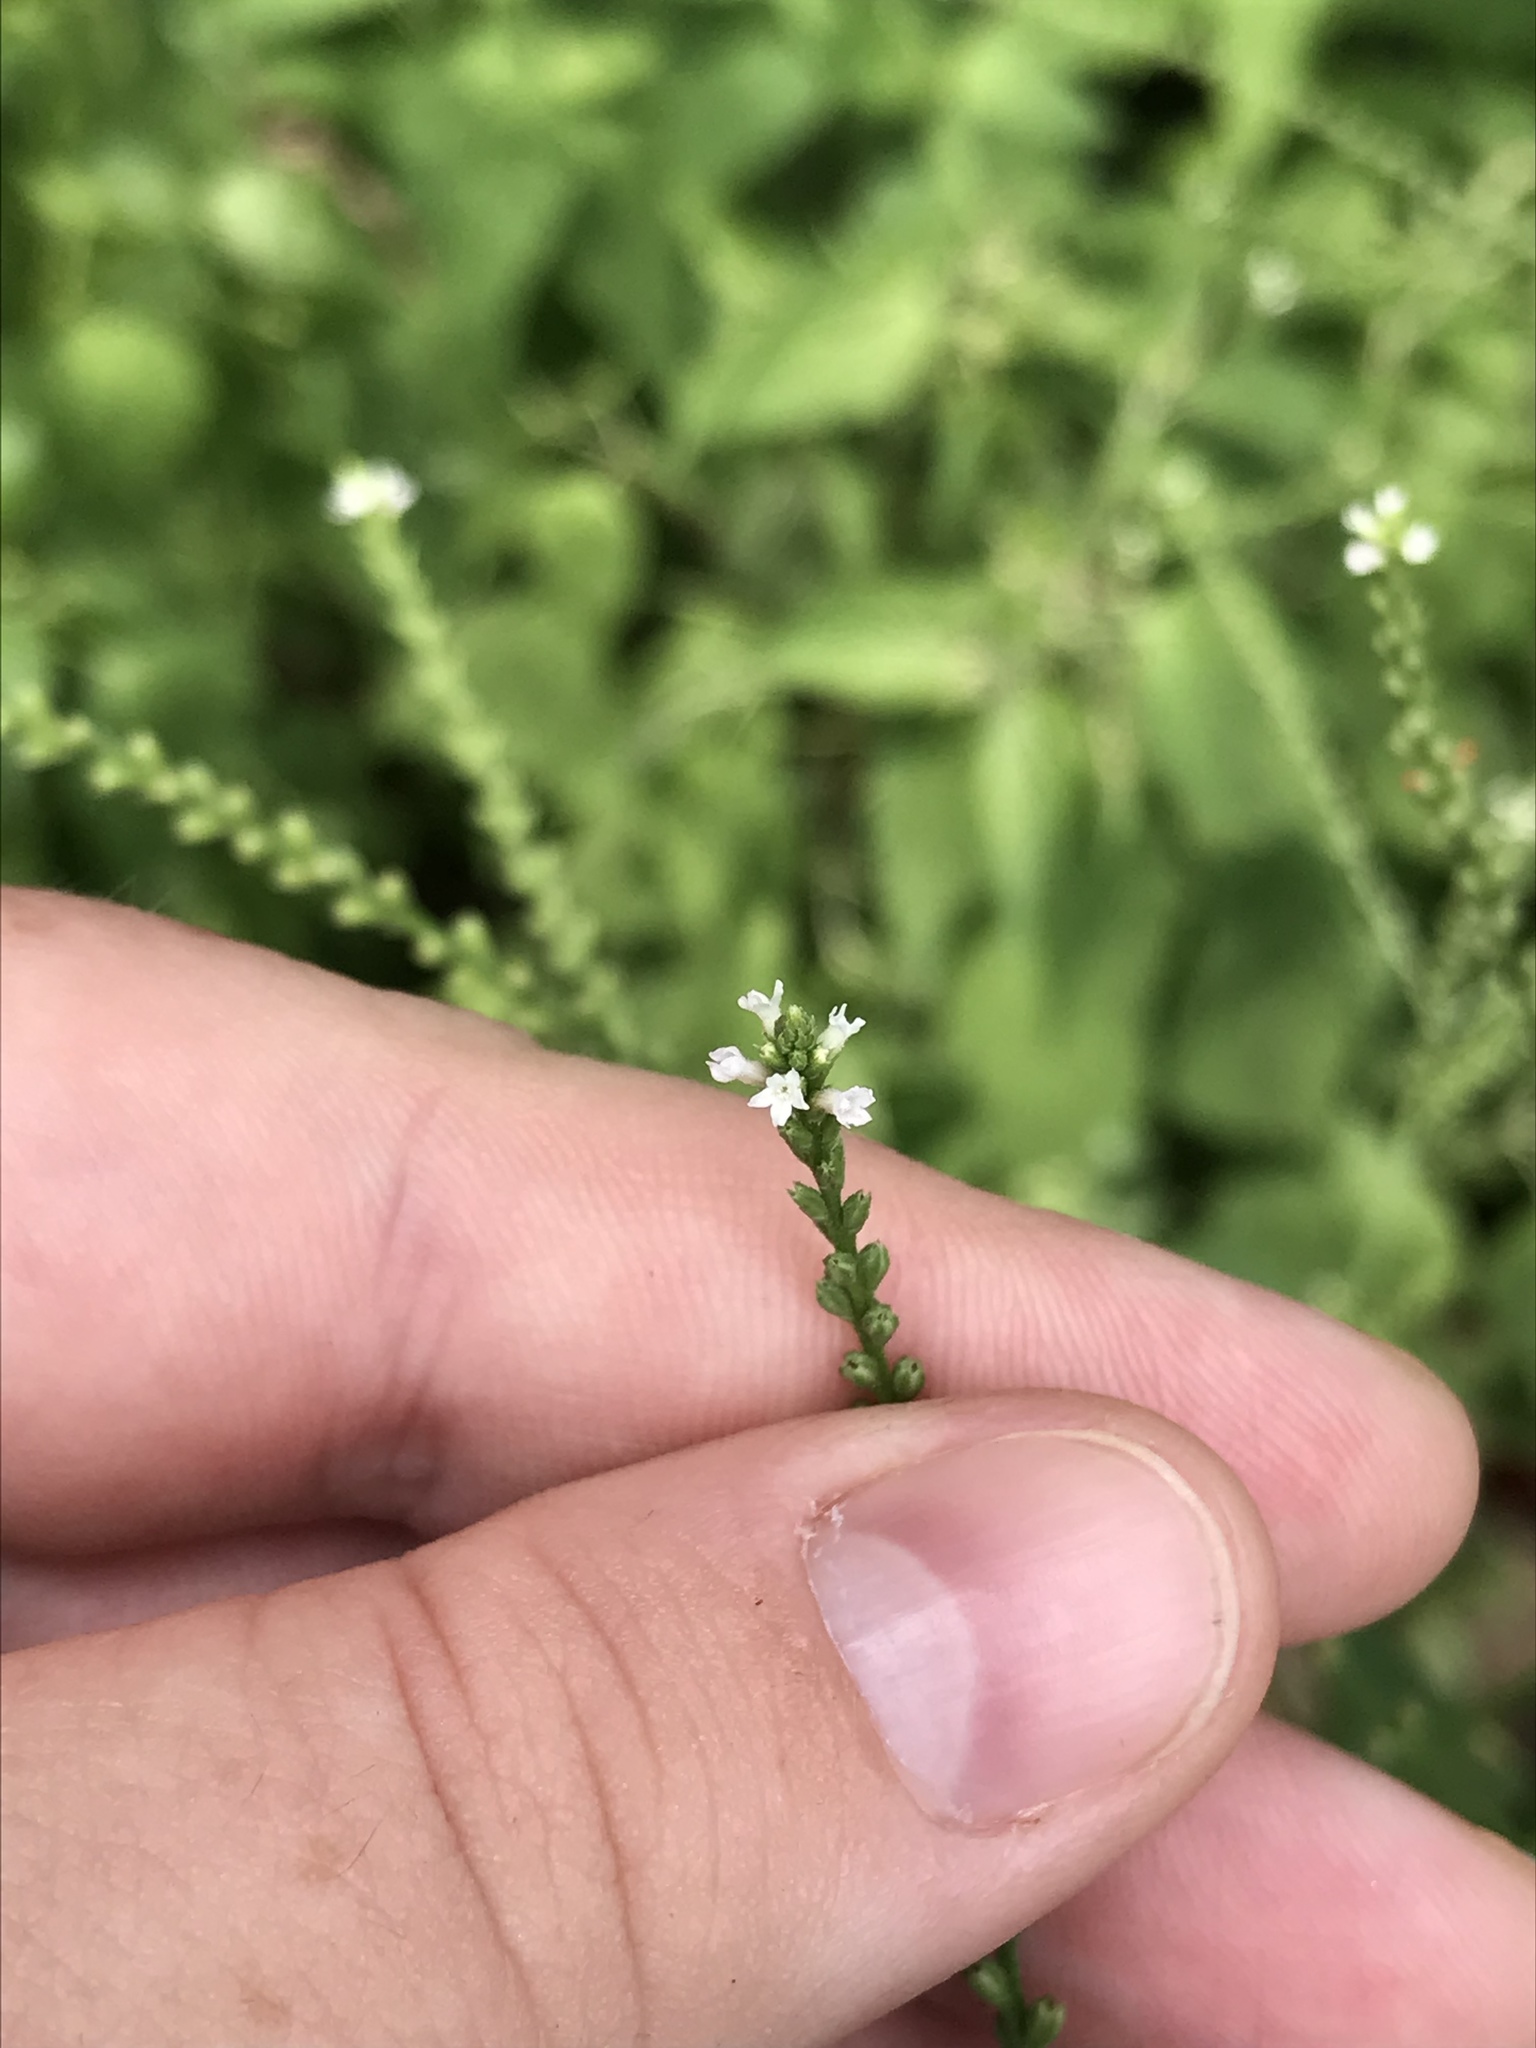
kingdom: Plantae
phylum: Tracheophyta
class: Magnoliopsida
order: Lamiales
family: Verbenaceae
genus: Verbena
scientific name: Verbena urticifolia
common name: Nettle-leaved vervain
